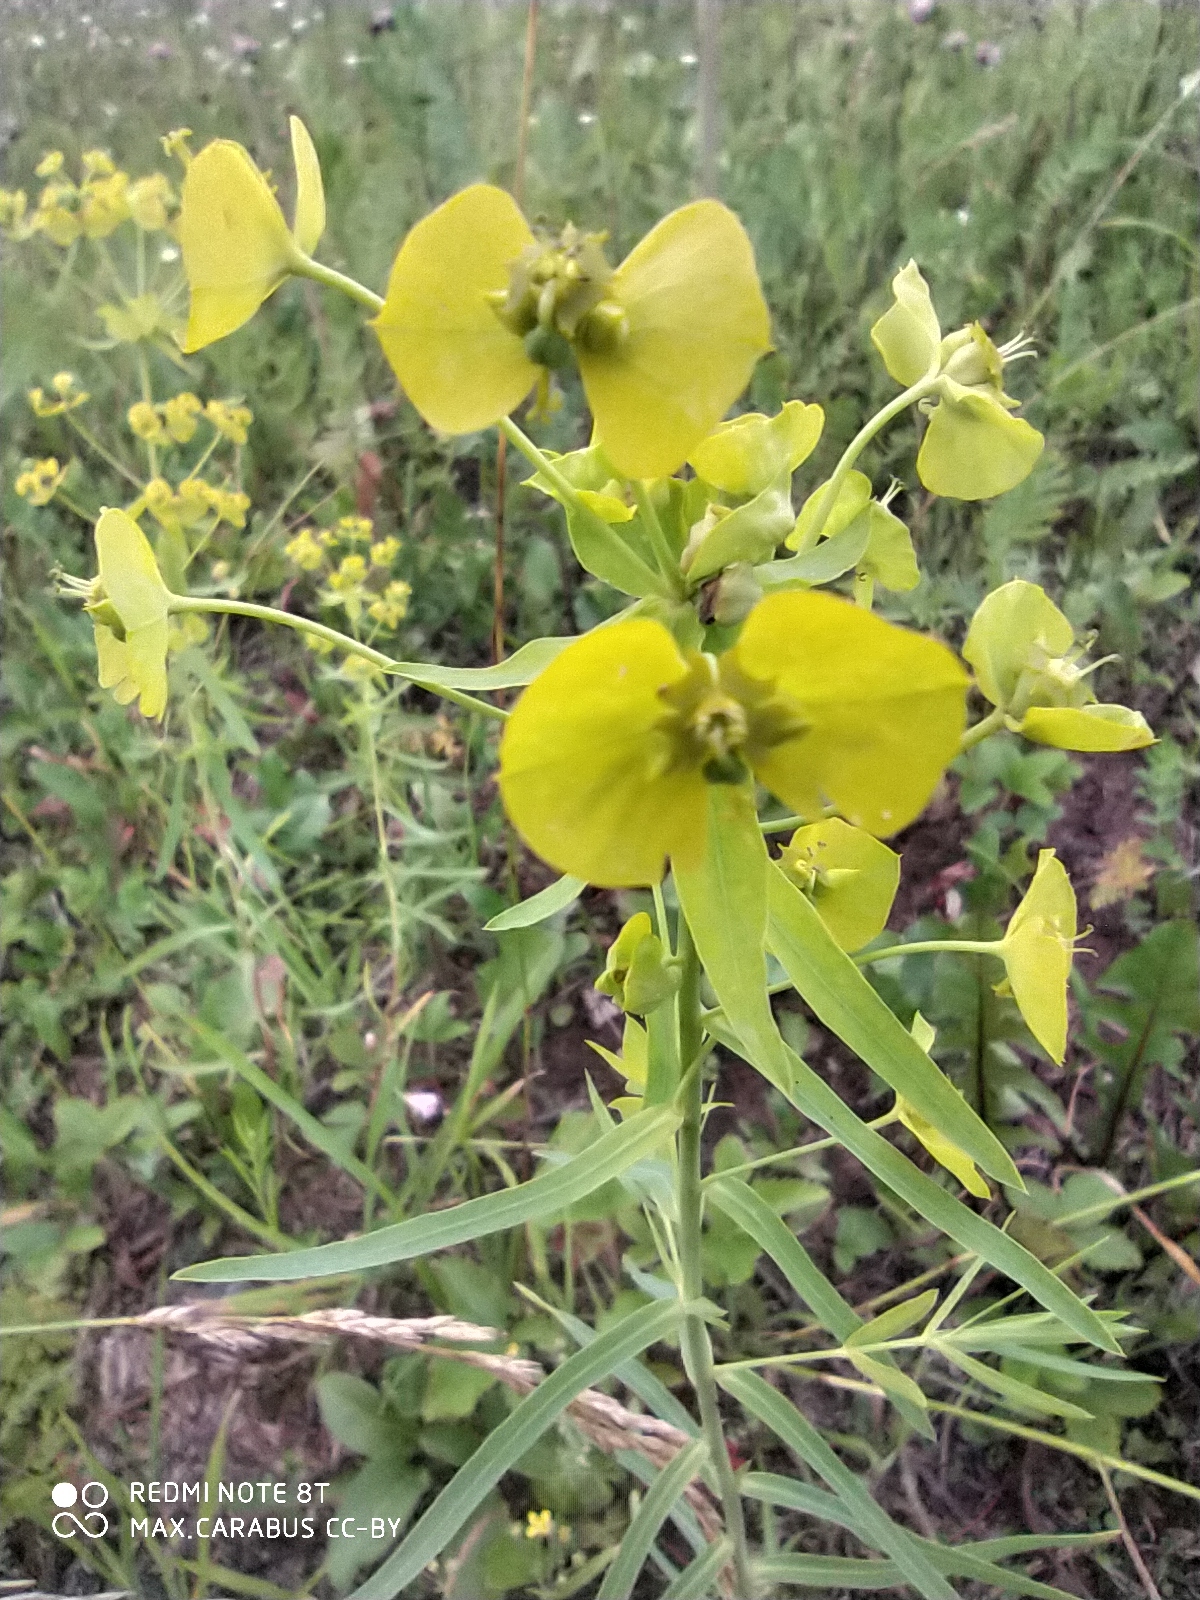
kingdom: Plantae
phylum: Tracheophyta
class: Magnoliopsida
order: Malpighiales
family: Euphorbiaceae
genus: Euphorbia
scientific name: Euphorbia virgata
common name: Leafy spurge
